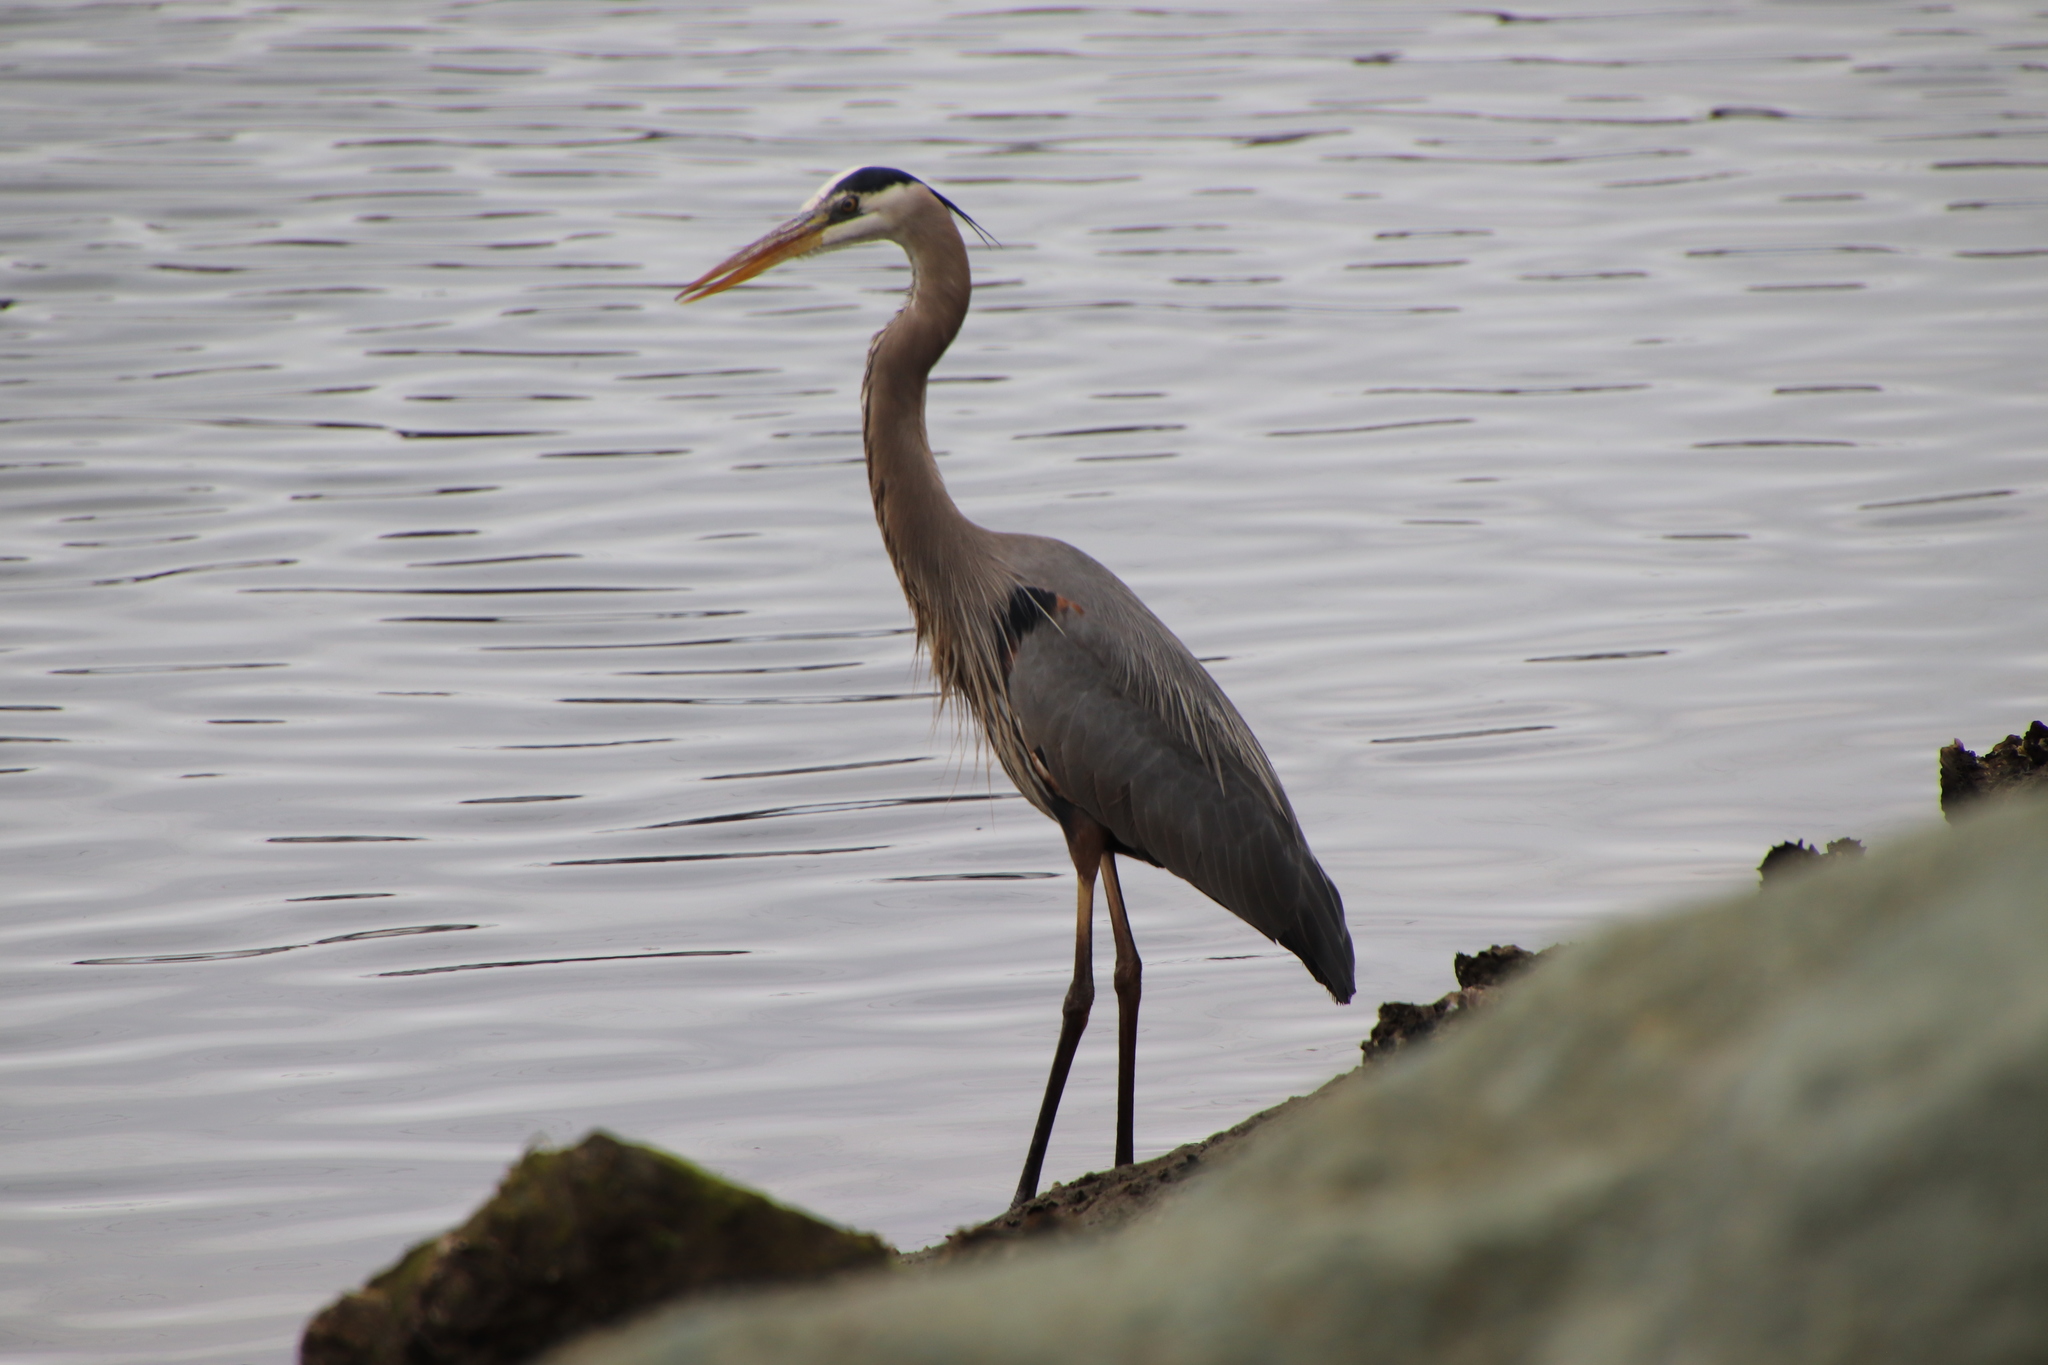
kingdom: Animalia
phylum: Chordata
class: Aves
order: Pelecaniformes
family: Ardeidae
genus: Ardea
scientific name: Ardea herodias
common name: Great blue heron
